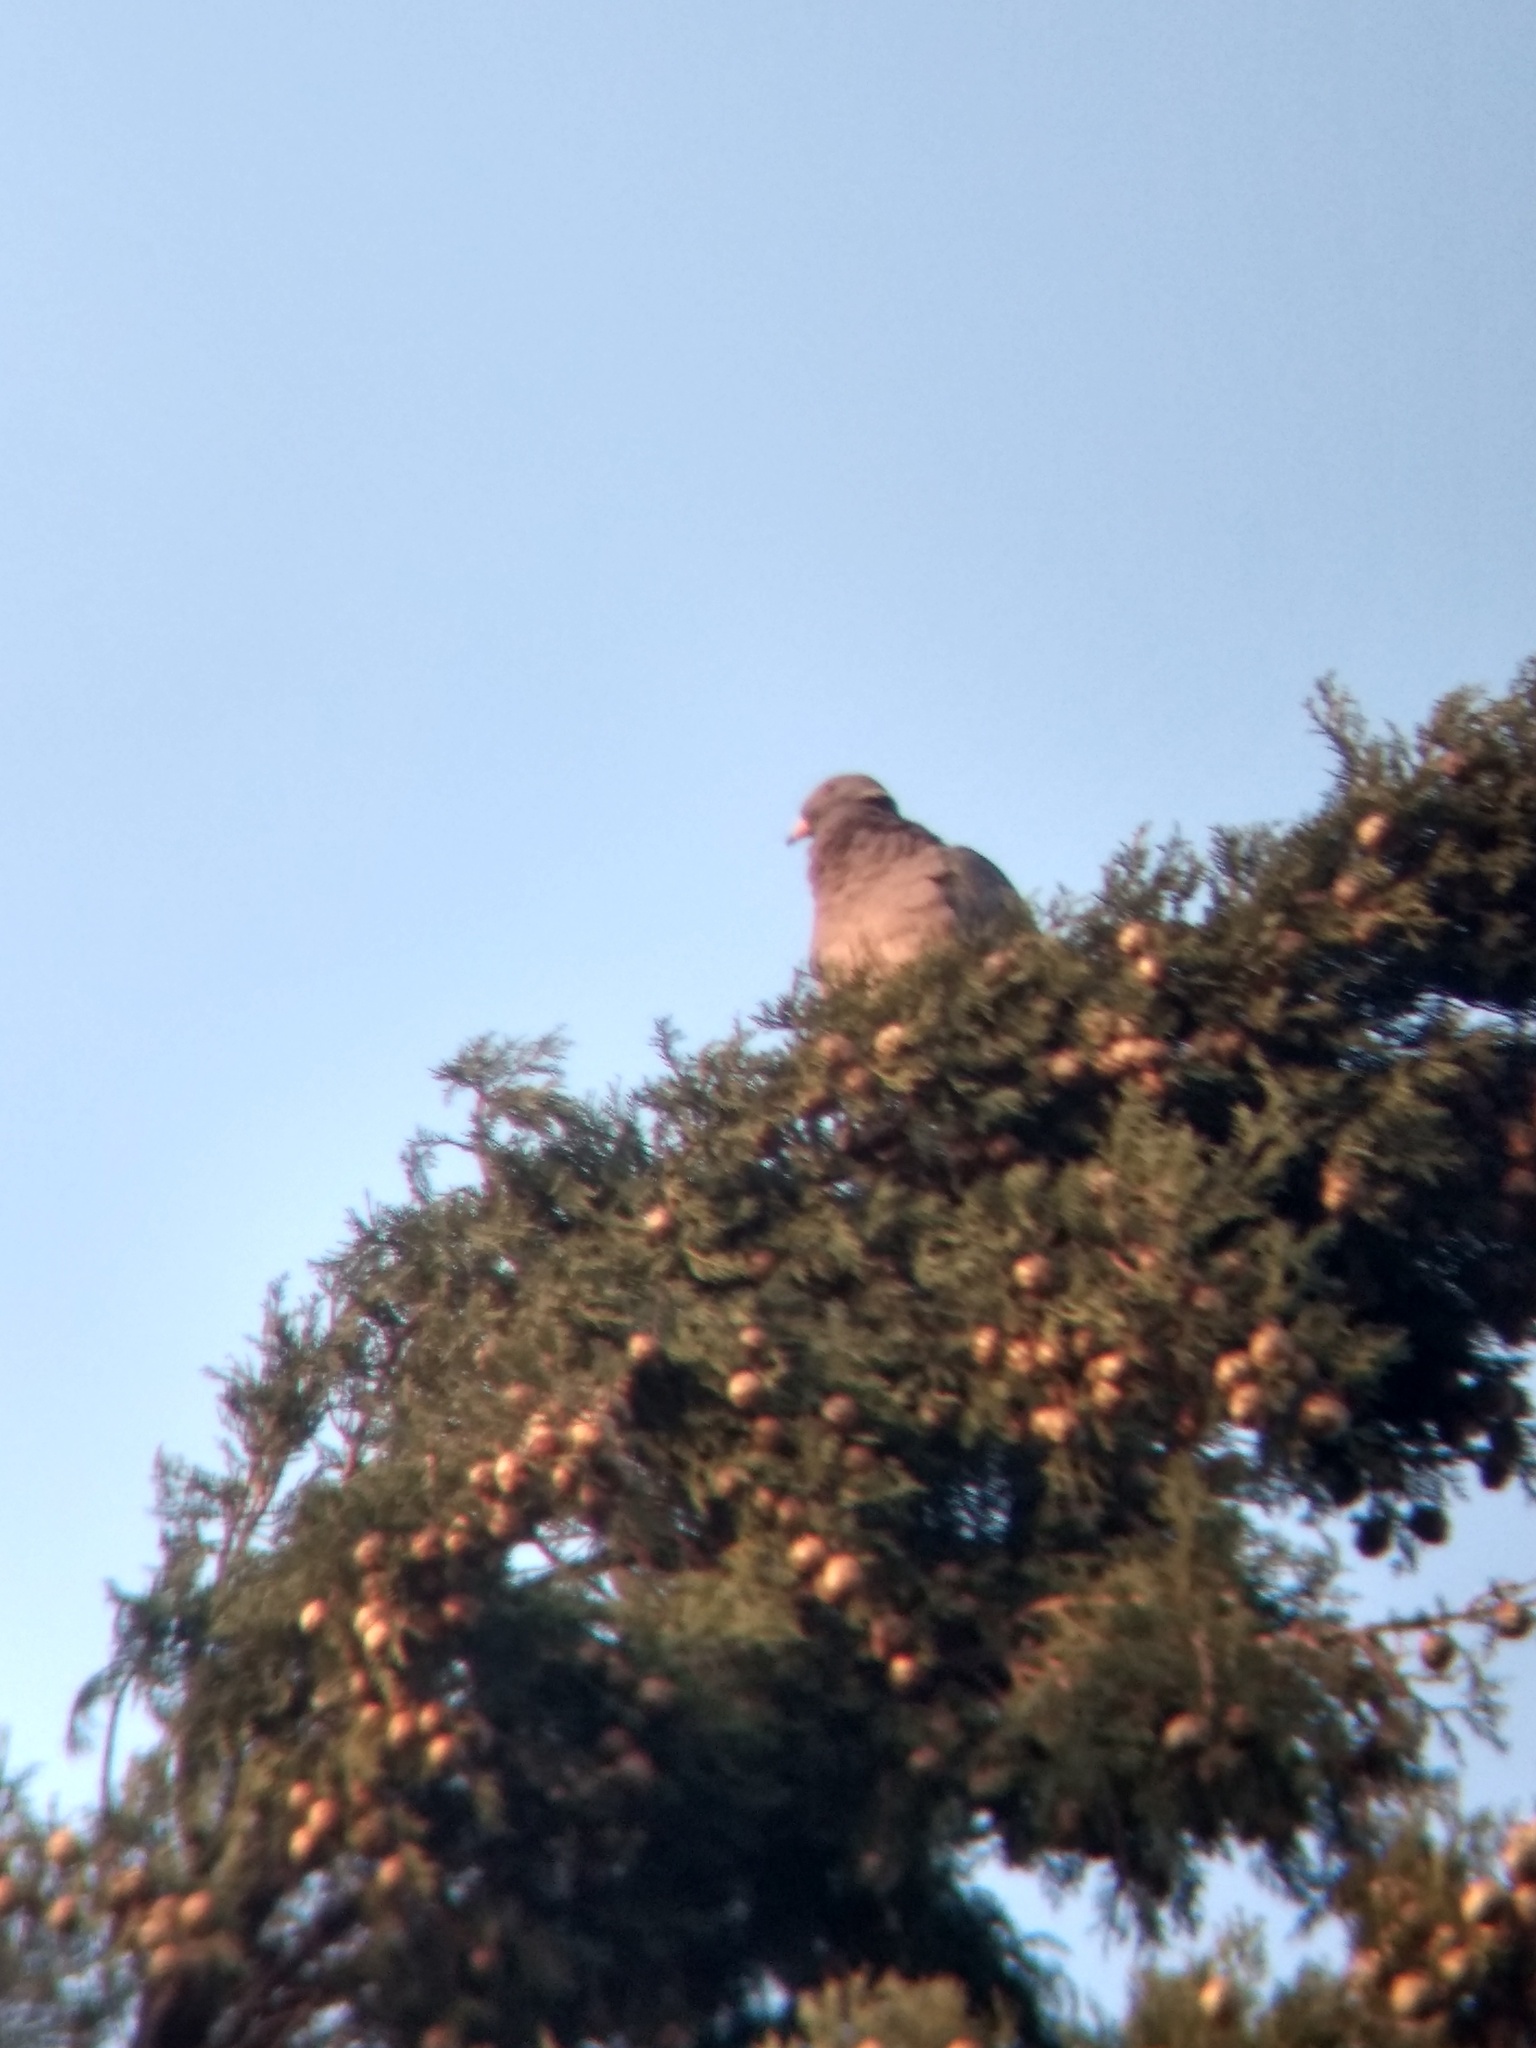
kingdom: Animalia
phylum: Chordata
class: Aves
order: Columbiformes
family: Columbidae
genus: Patagioenas
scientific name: Patagioenas fasciata
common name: Band-tailed pigeon
